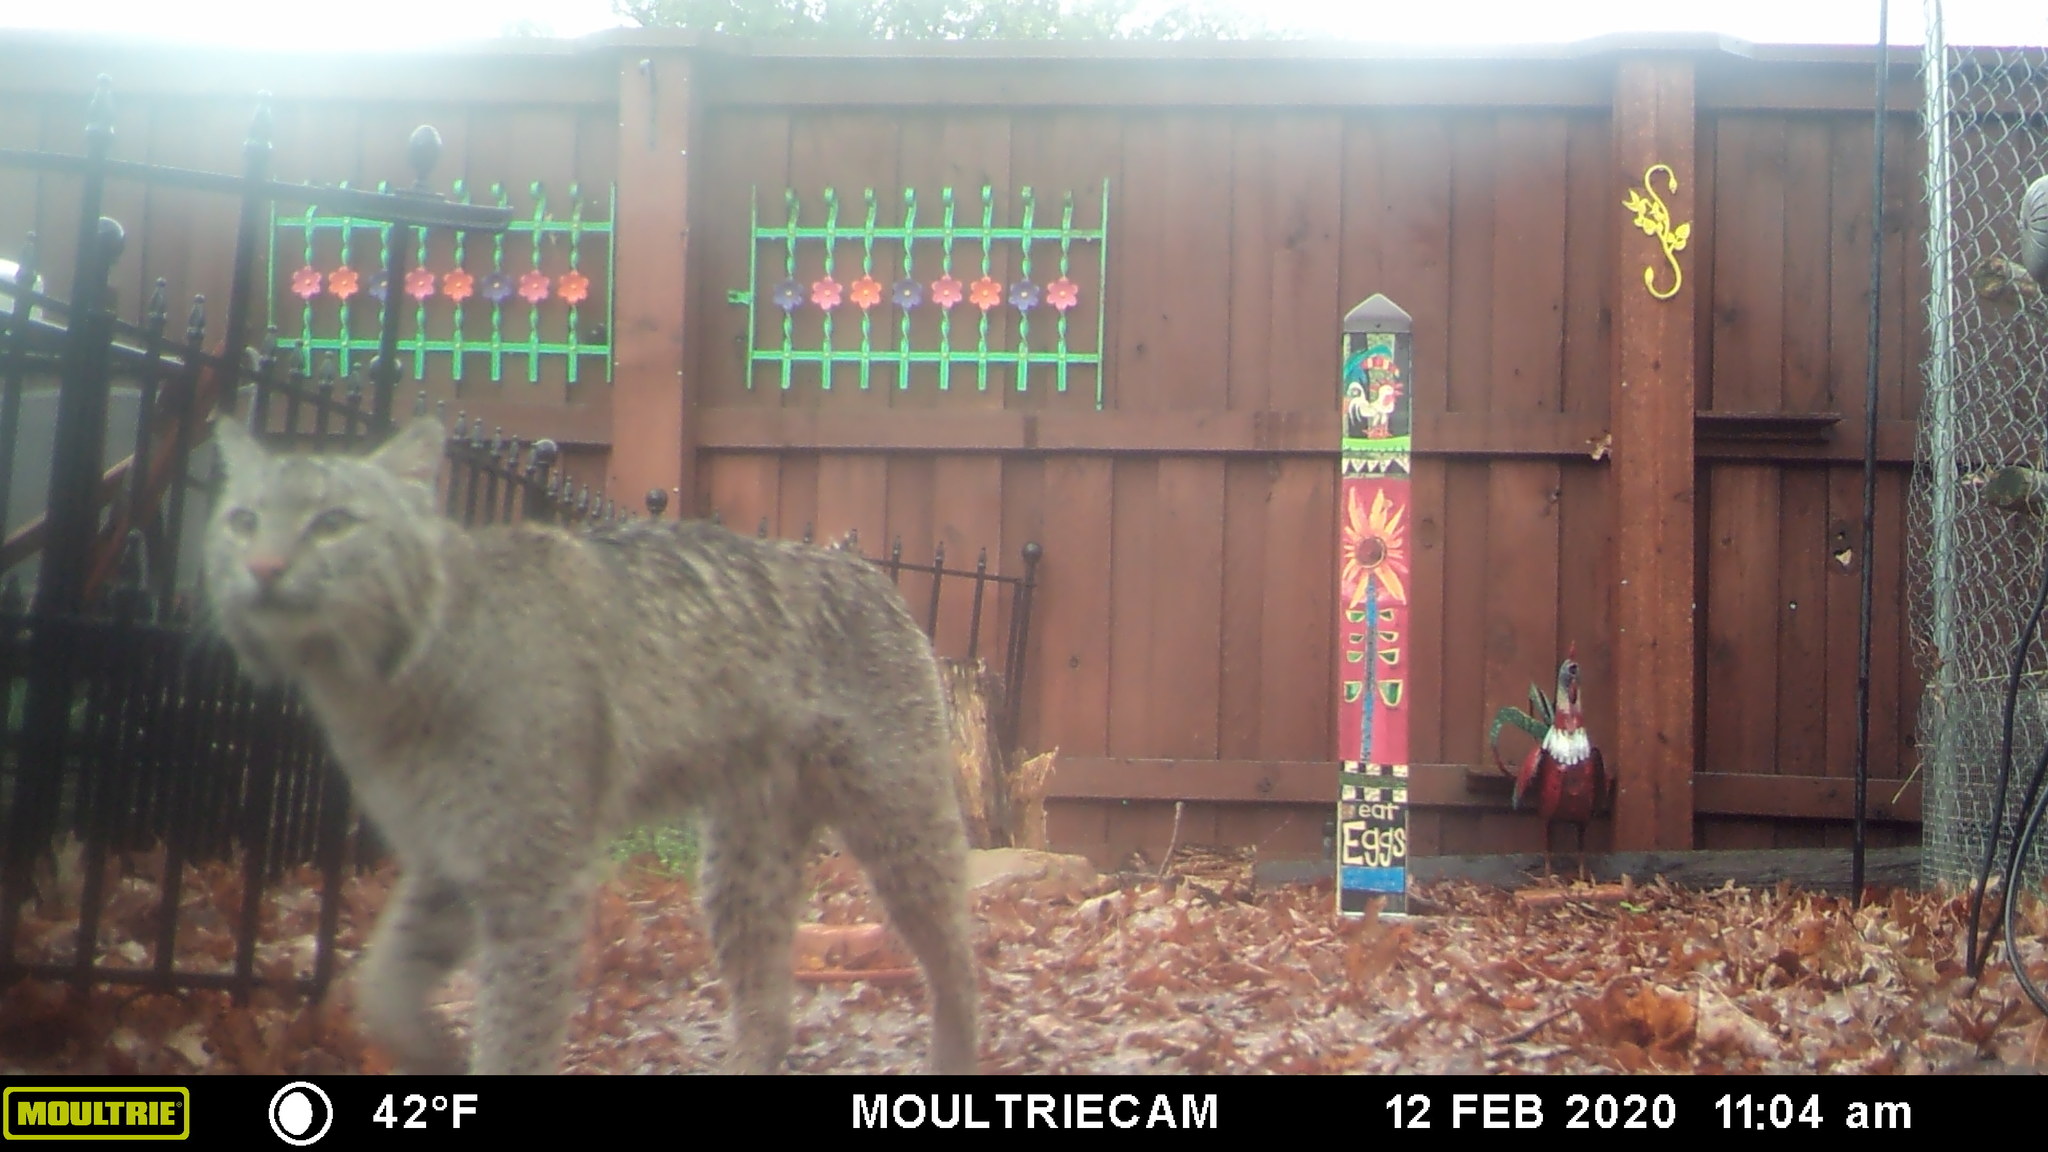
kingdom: Animalia
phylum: Chordata
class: Mammalia
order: Carnivora
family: Felidae
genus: Lynx
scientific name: Lynx rufus
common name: Bobcat
